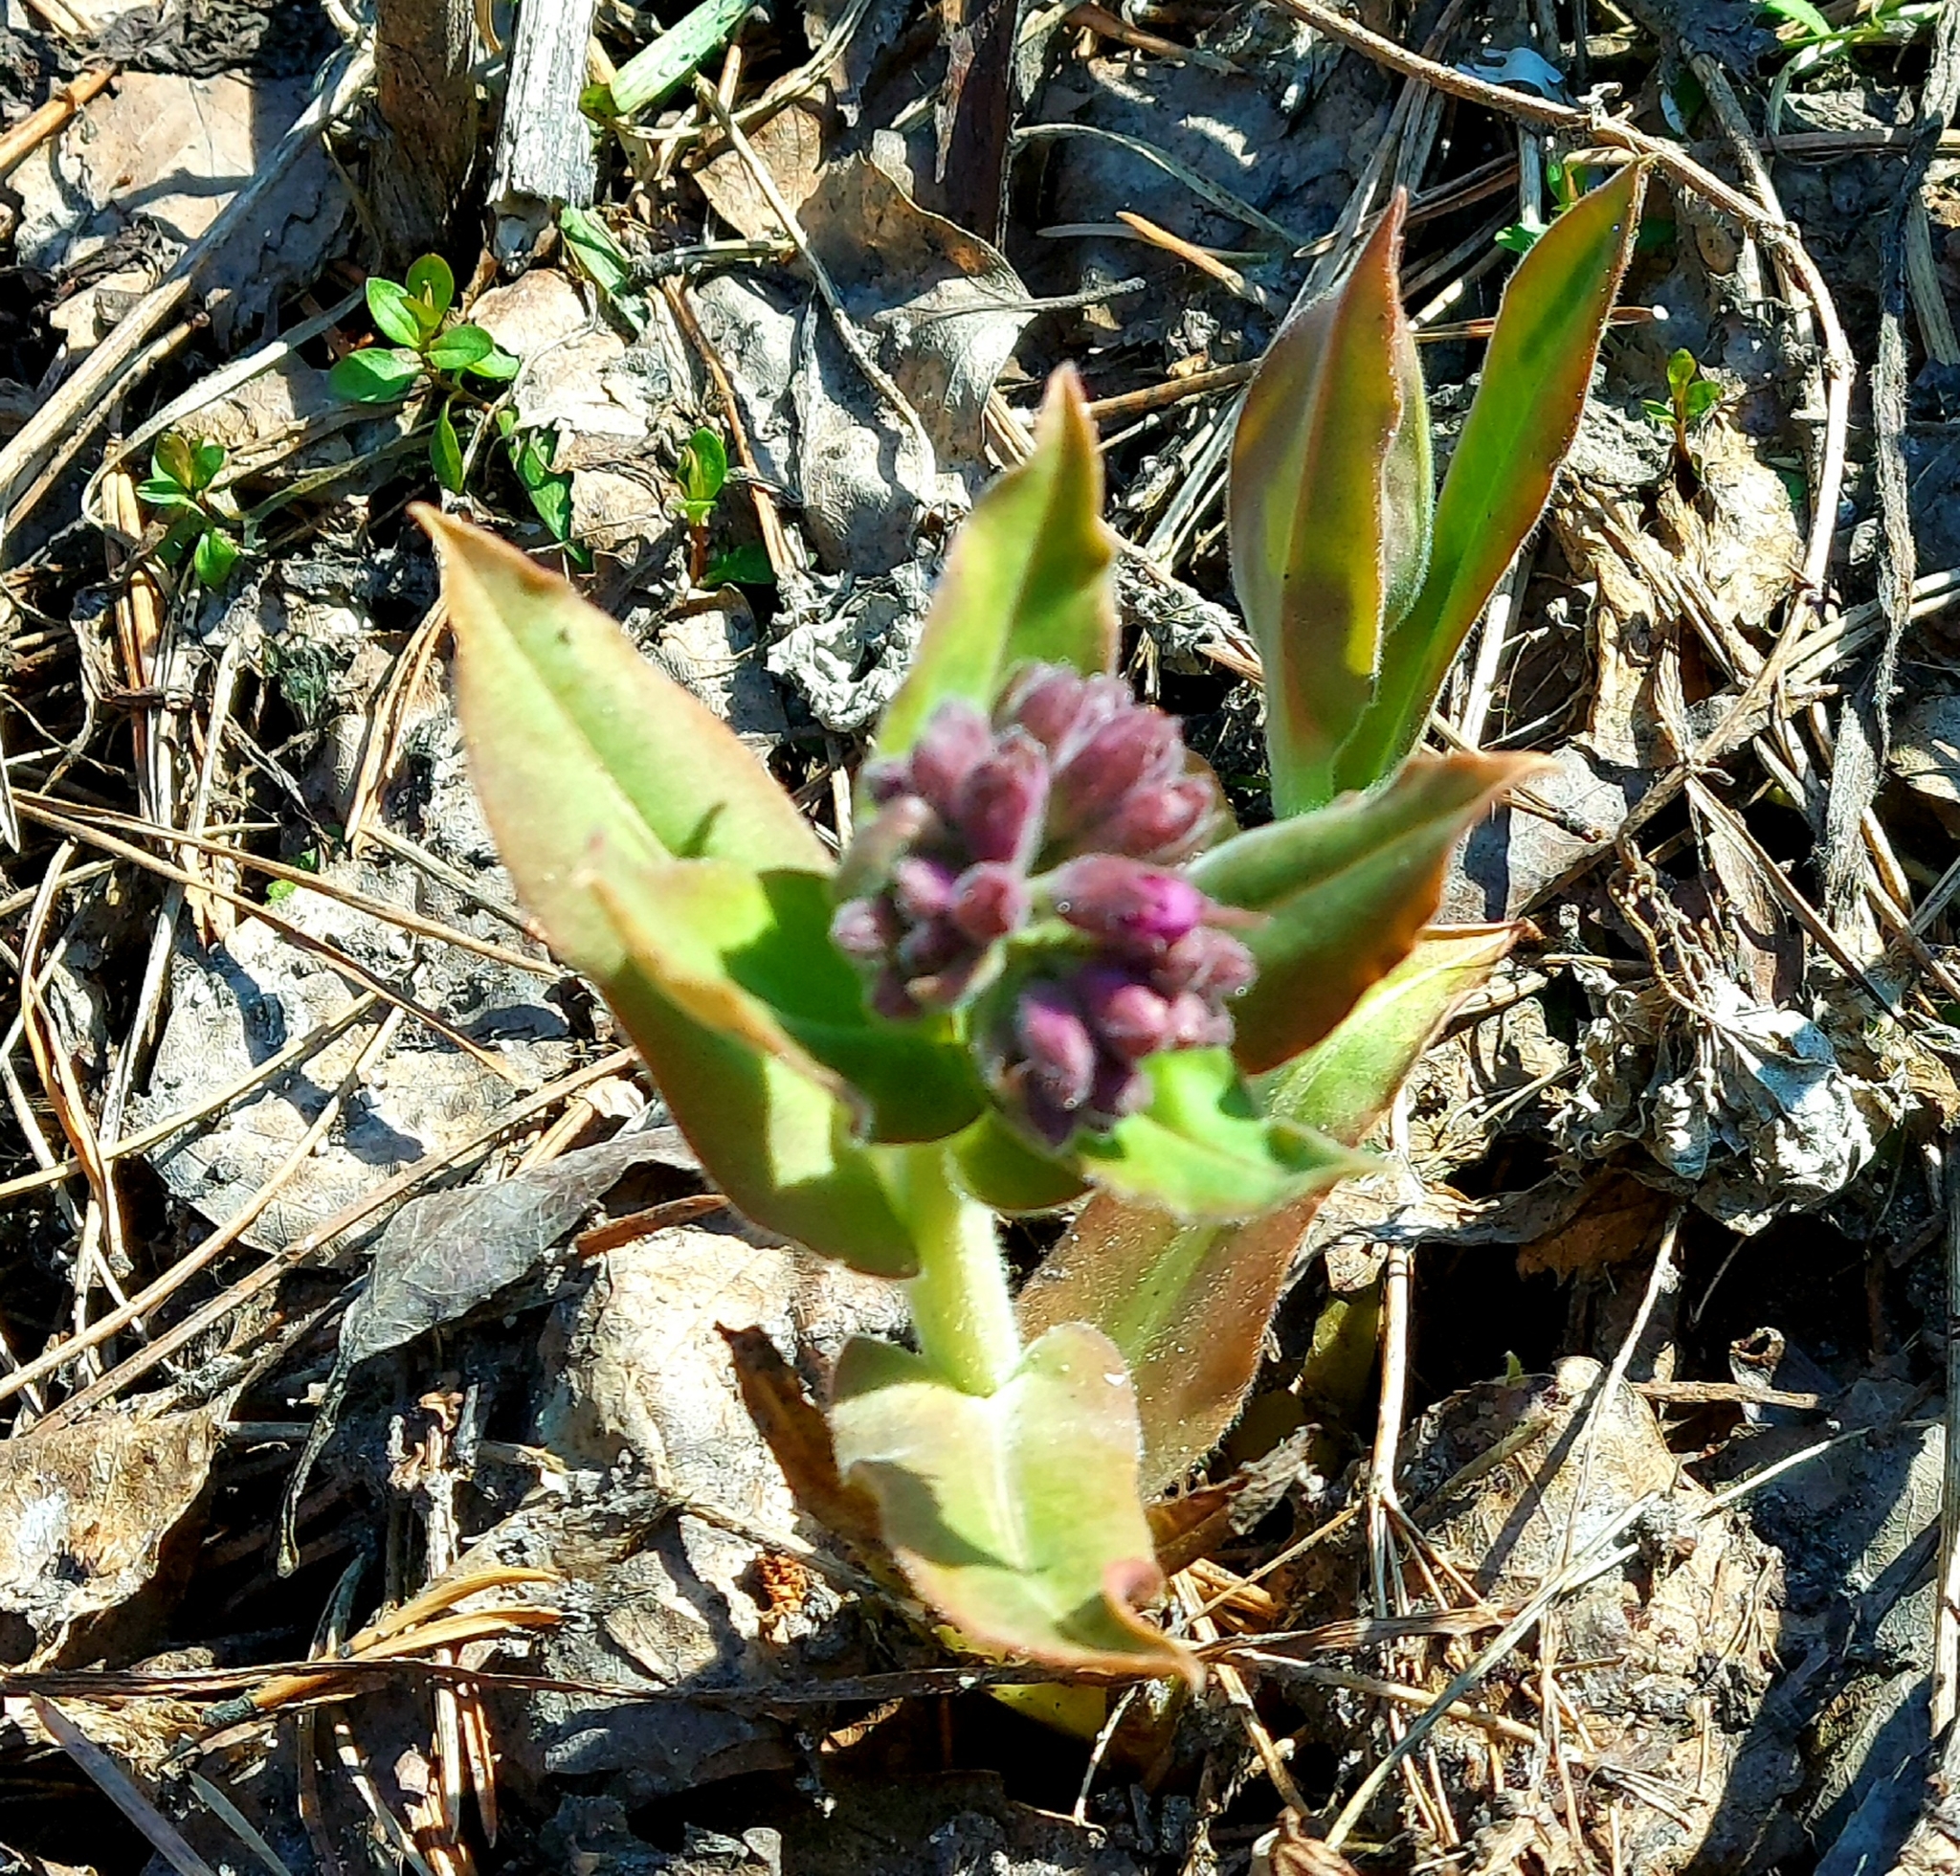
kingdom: Plantae
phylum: Tracheophyta
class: Magnoliopsida
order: Boraginales
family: Boraginaceae
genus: Pulmonaria
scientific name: Pulmonaria mollis
